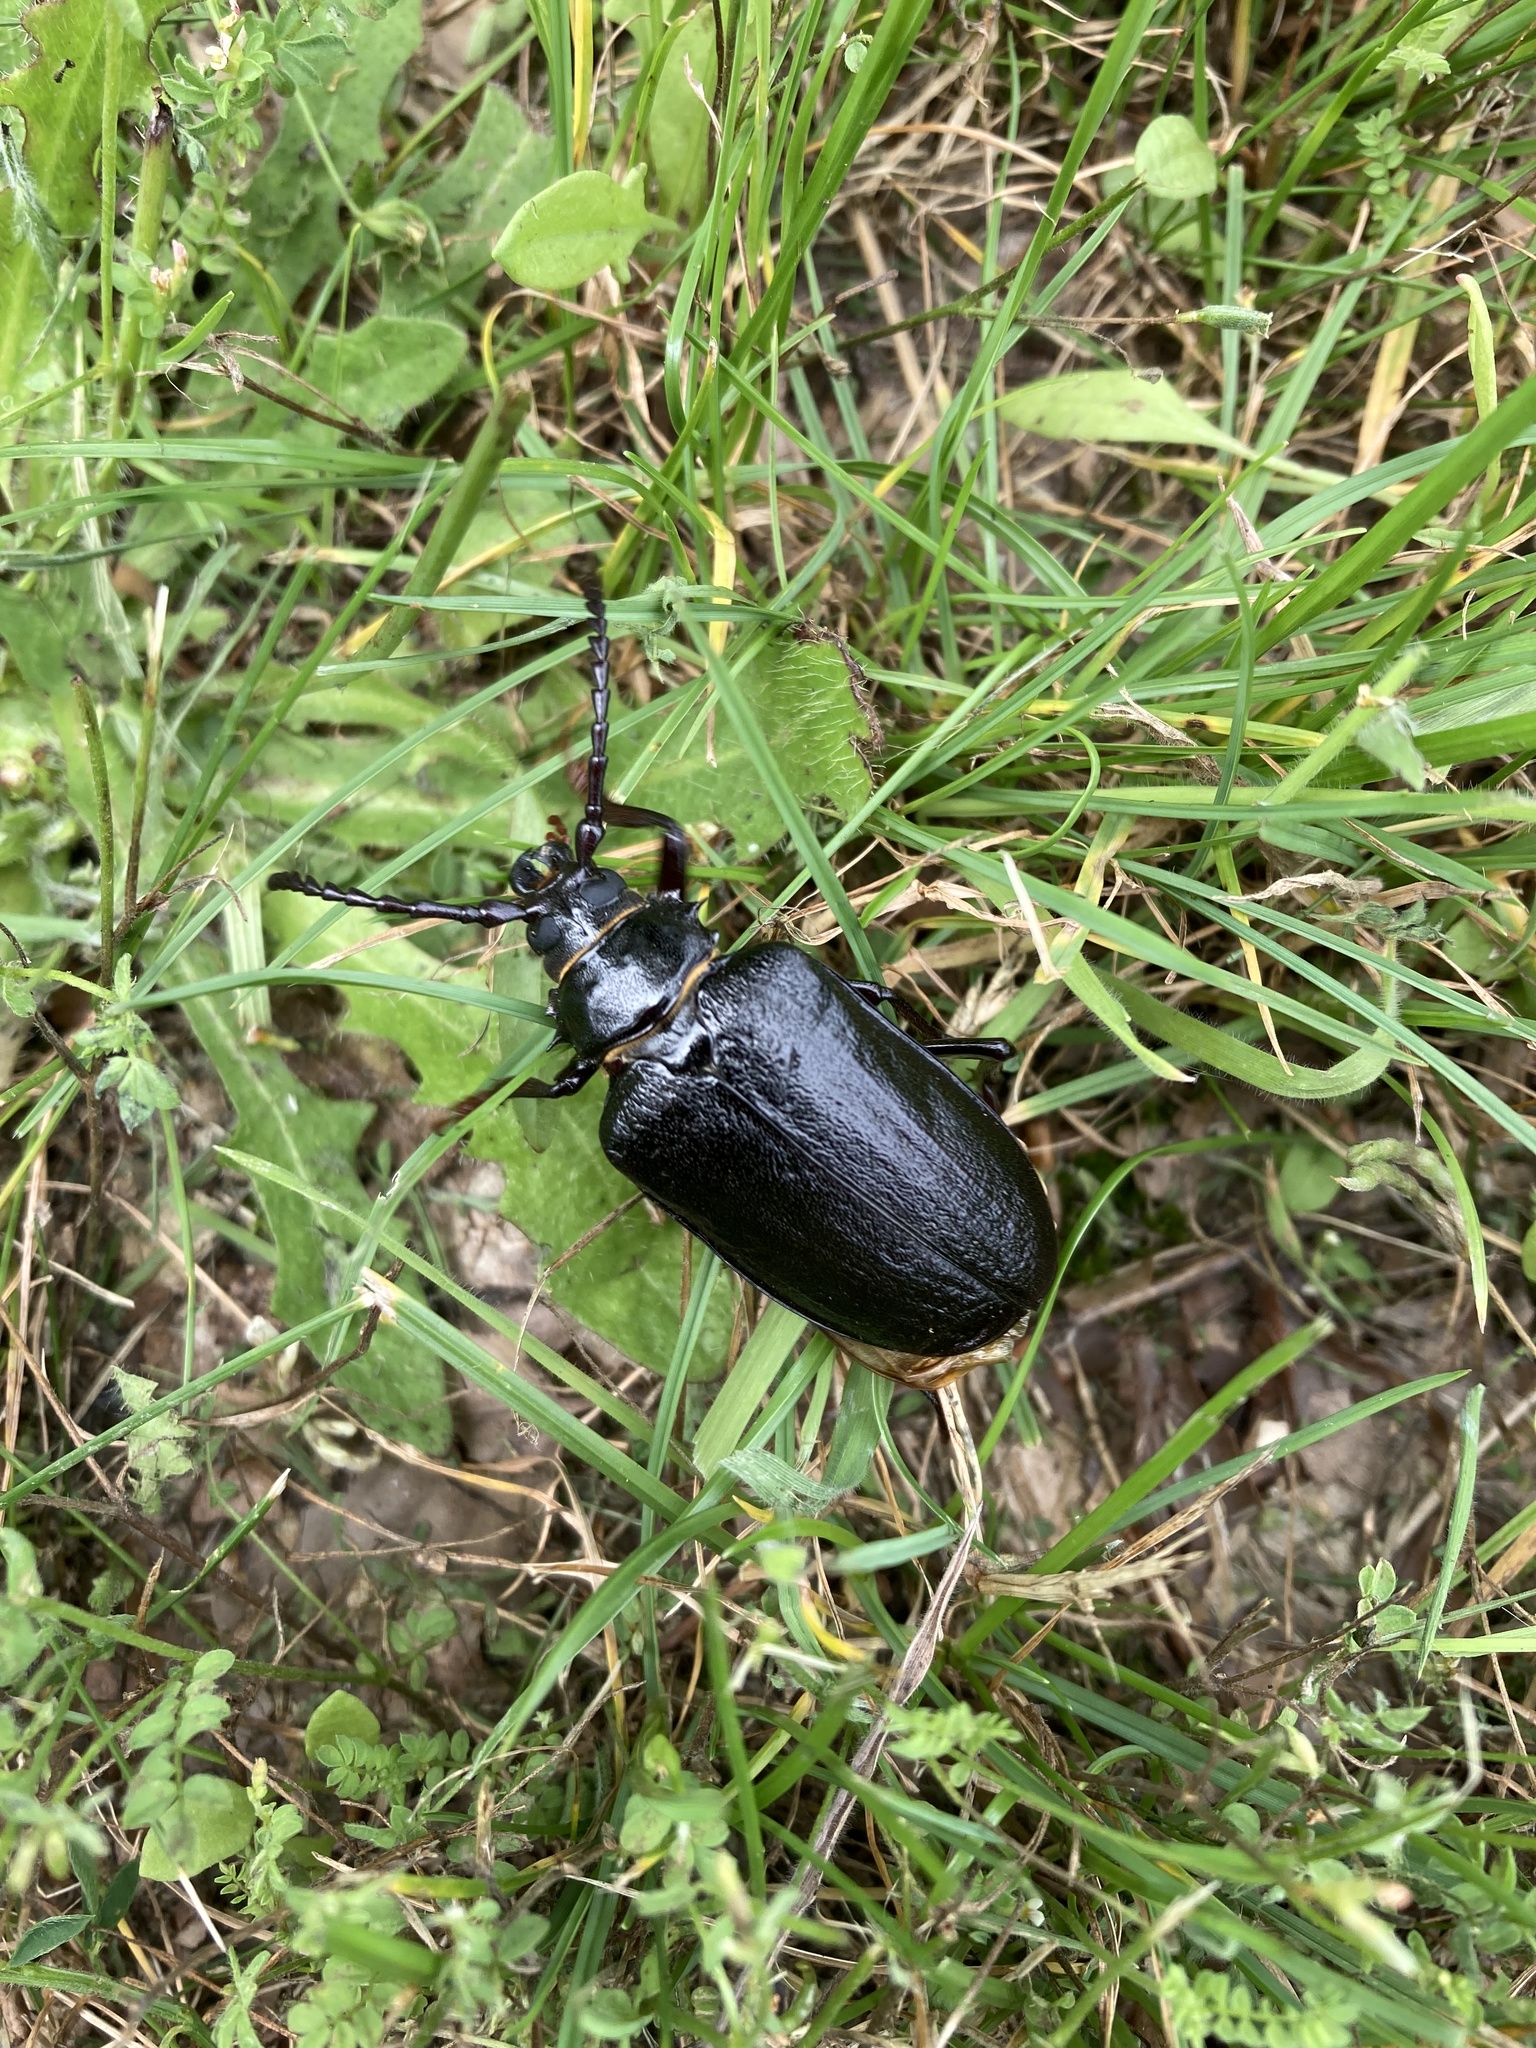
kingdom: Animalia
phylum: Arthropoda
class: Insecta
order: Coleoptera
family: Cerambycidae
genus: Prionus
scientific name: Prionus coriarius
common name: Tanner beetle
